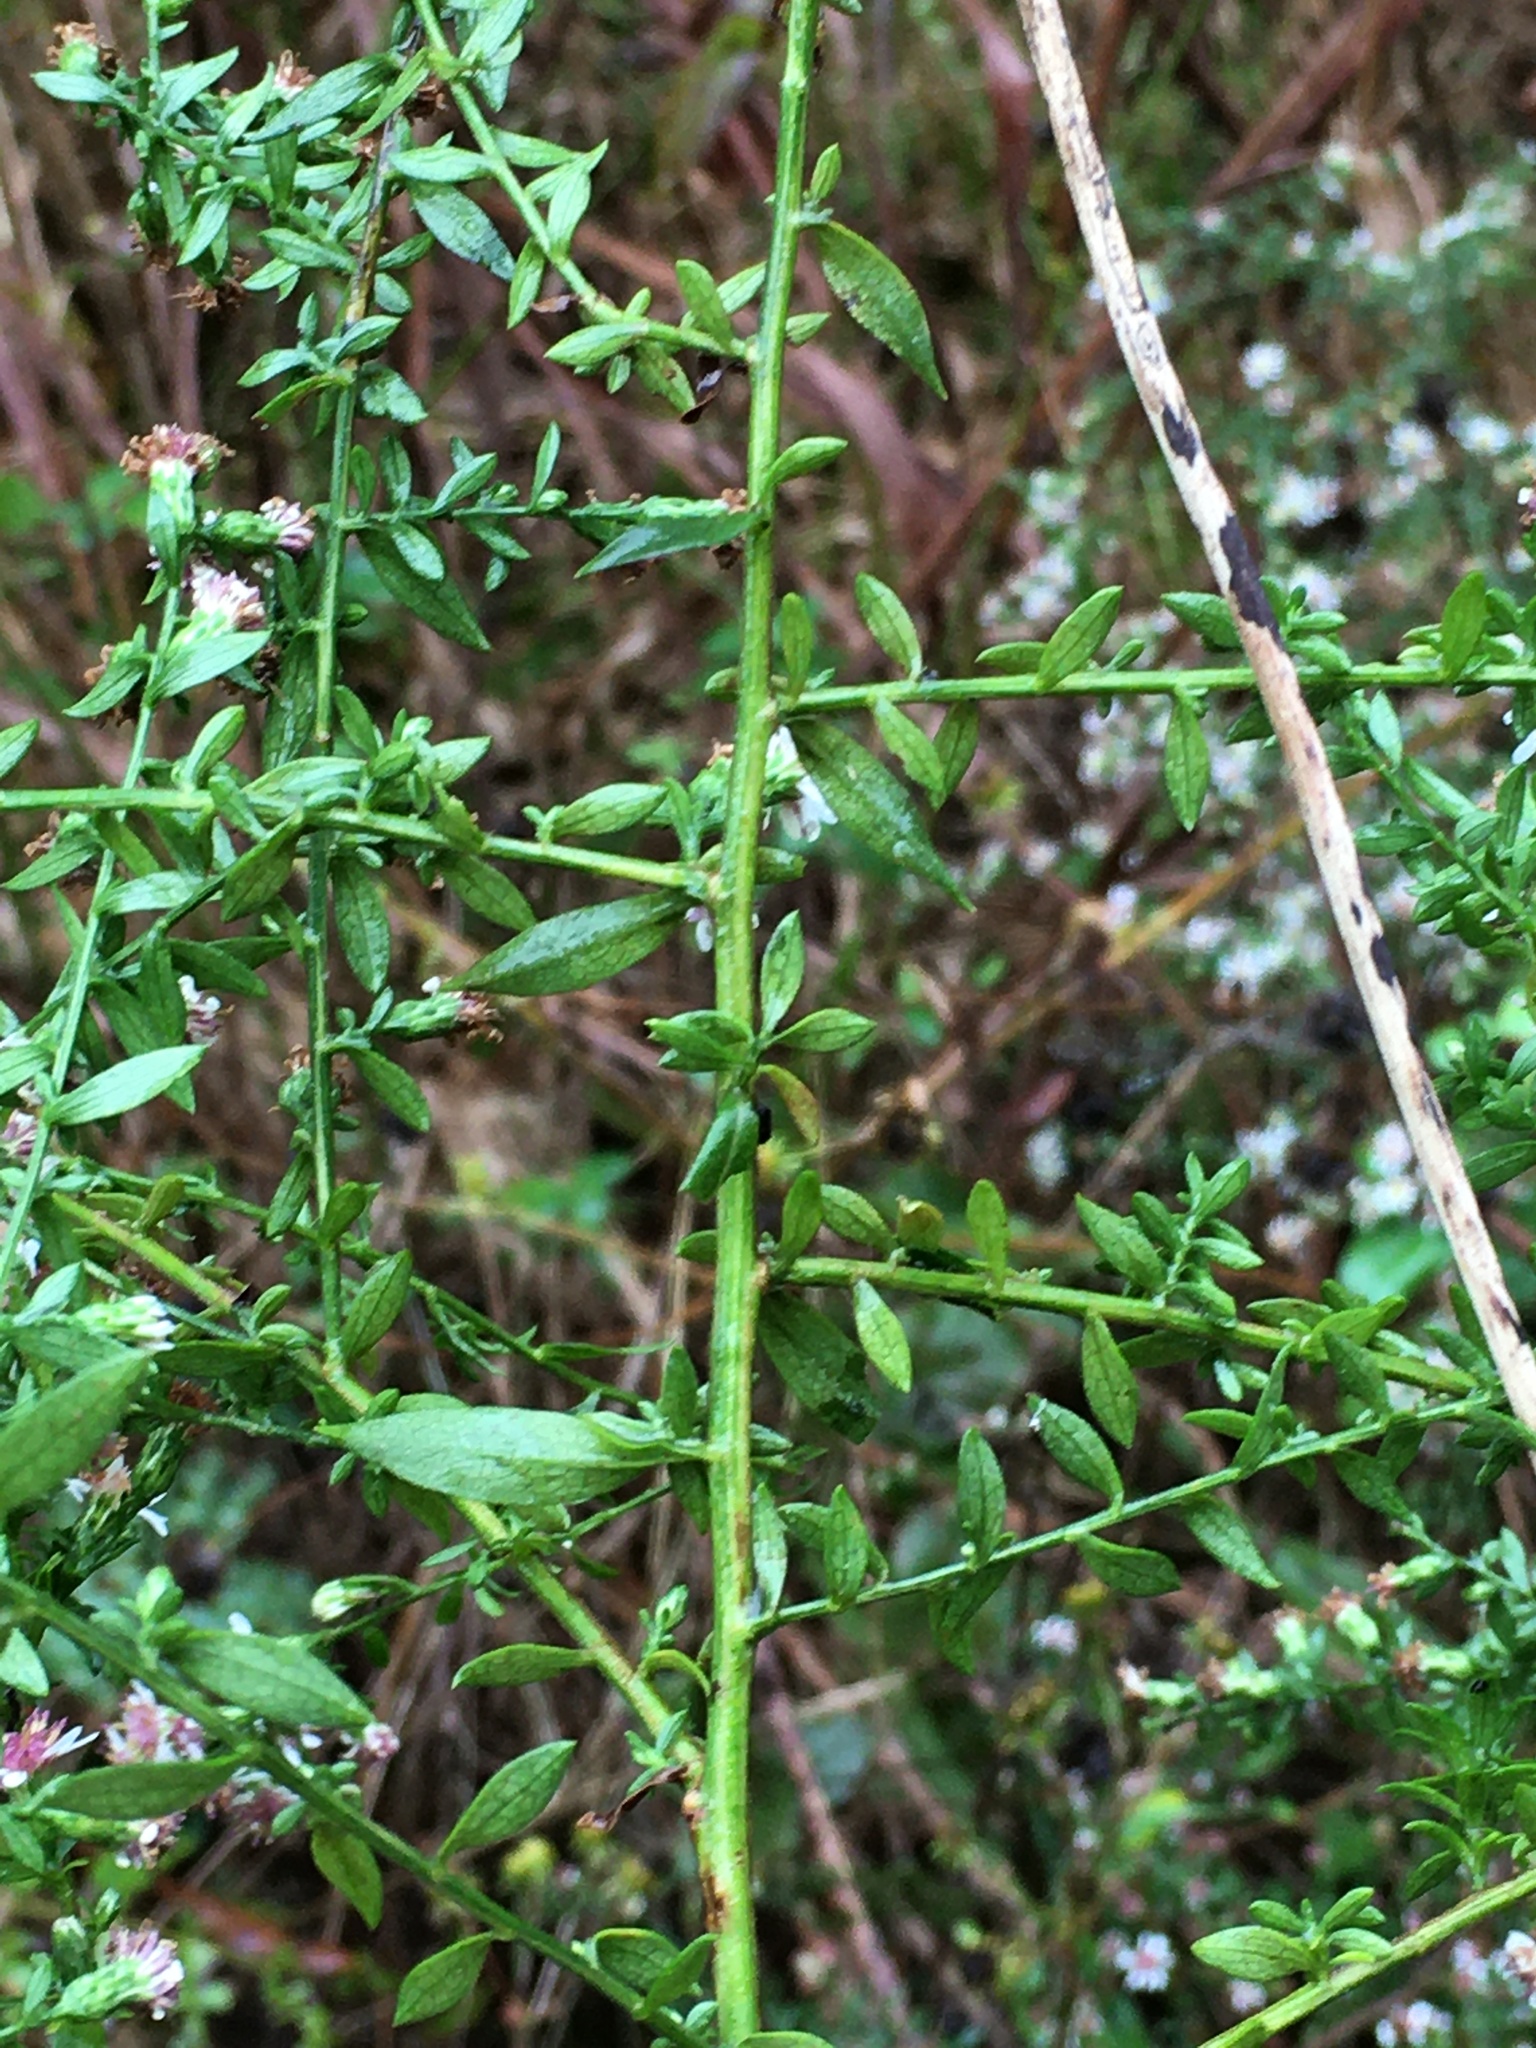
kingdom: Plantae
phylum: Tracheophyta
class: Magnoliopsida
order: Asterales
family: Asteraceae
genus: Symphyotrichum
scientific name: Symphyotrichum lateriflorum
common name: Calico aster
